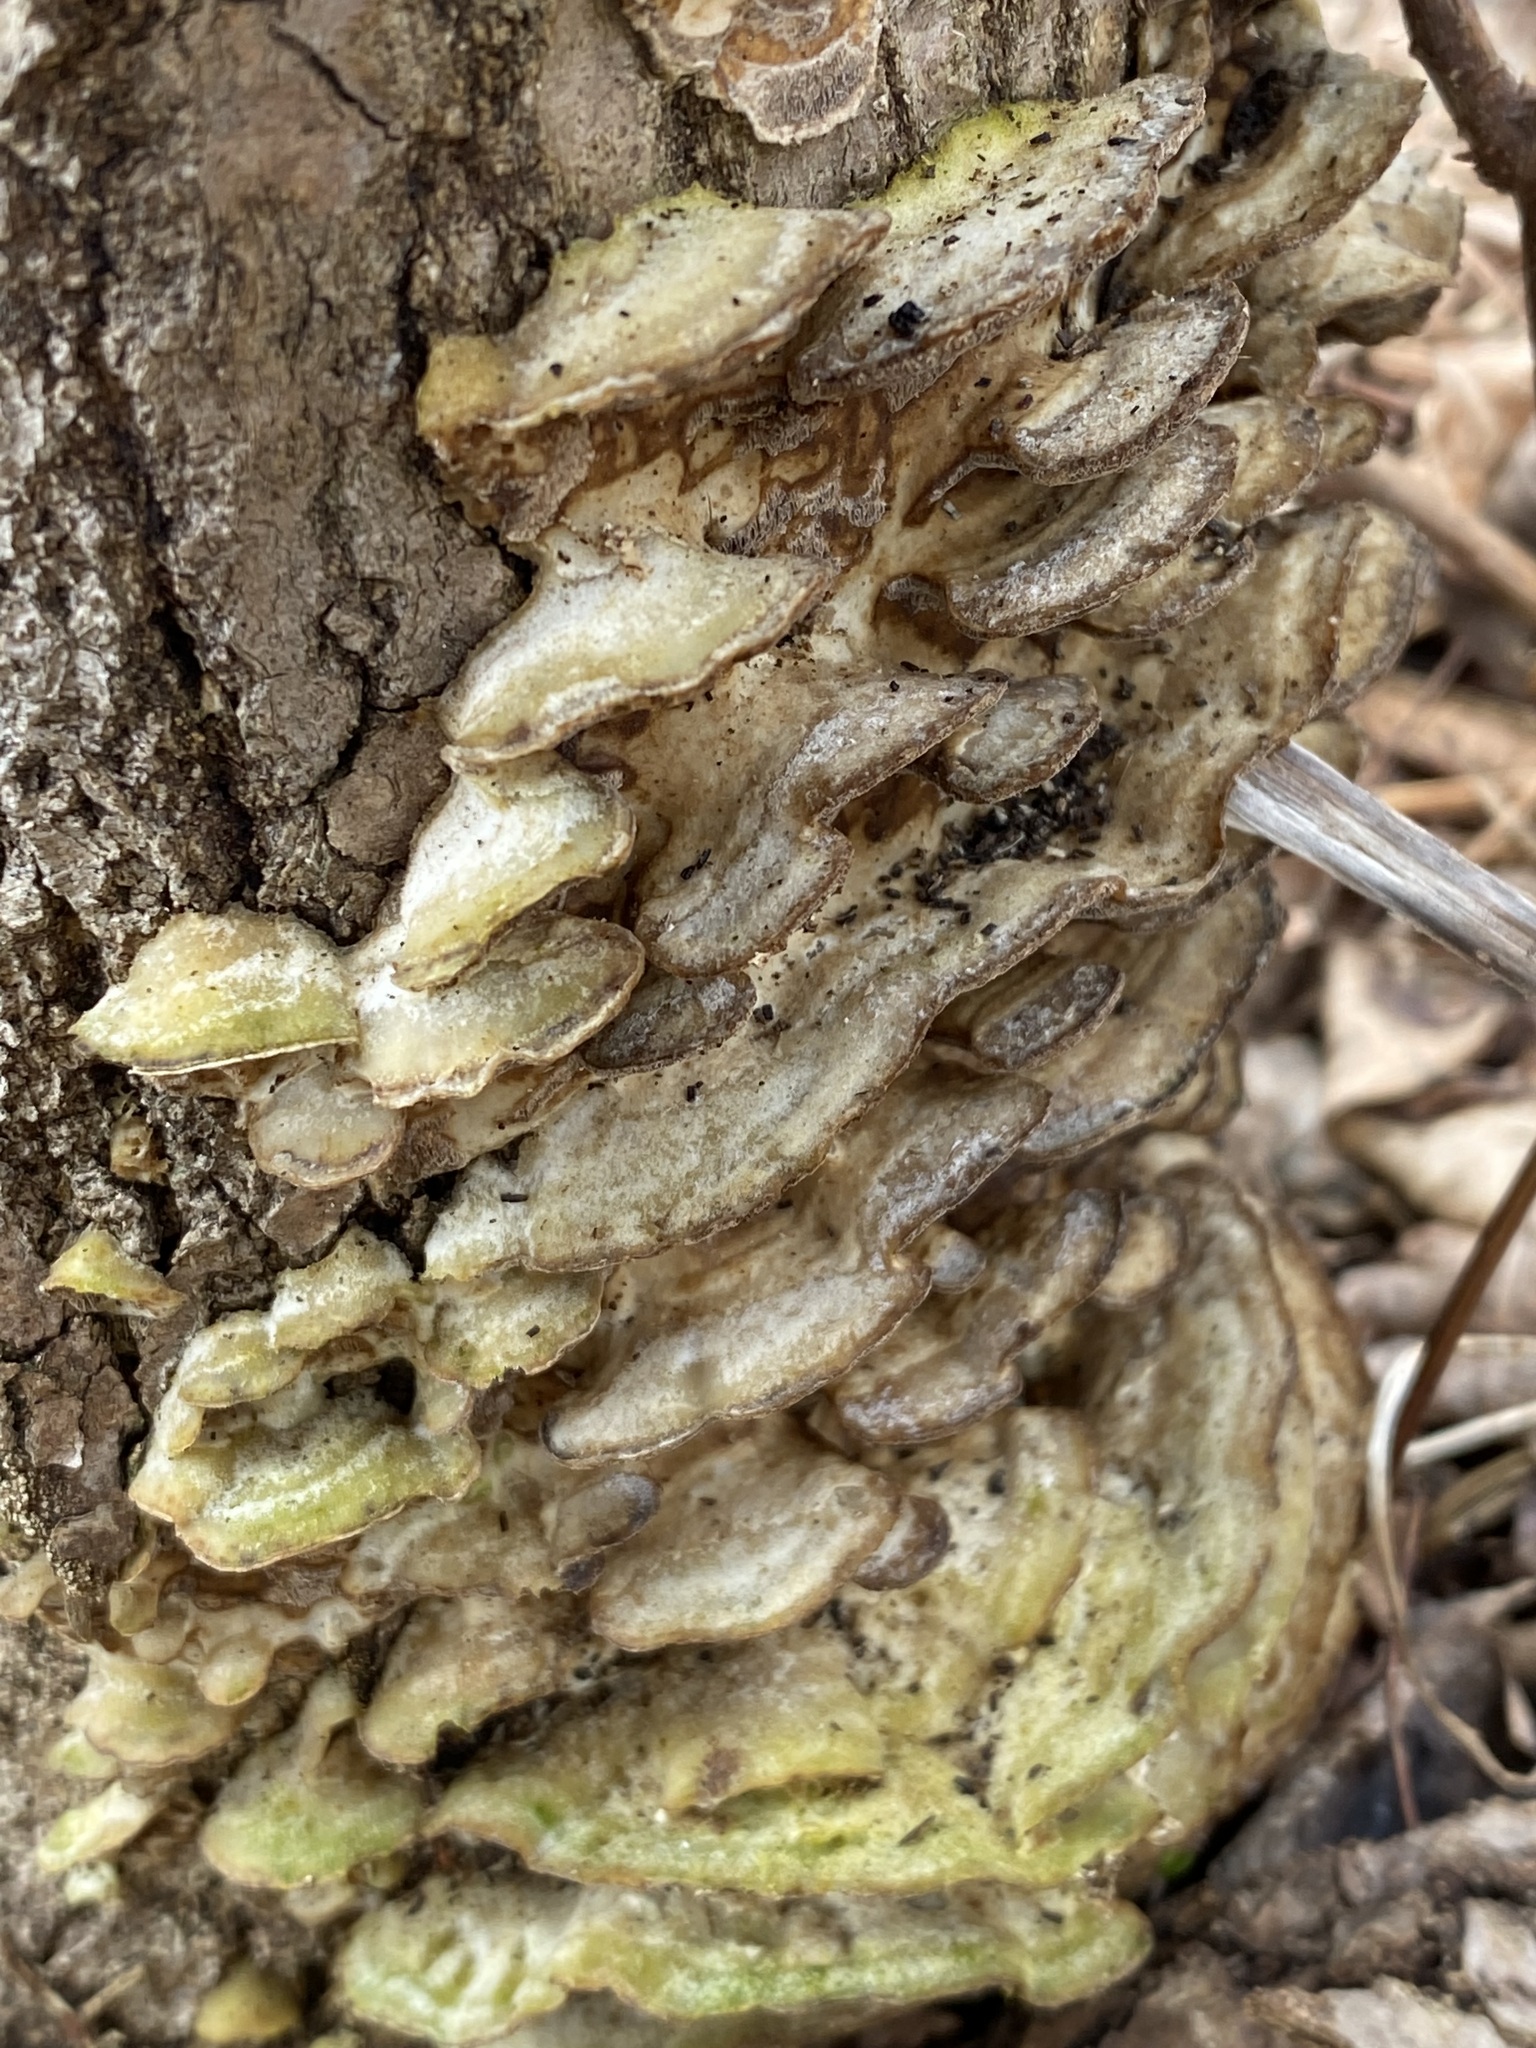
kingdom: Fungi
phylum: Basidiomycota
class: Agaricomycetes
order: Polyporales
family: Cerrenaceae
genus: Cerrena
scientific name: Cerrena unicolor
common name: Mossy maze polypore
